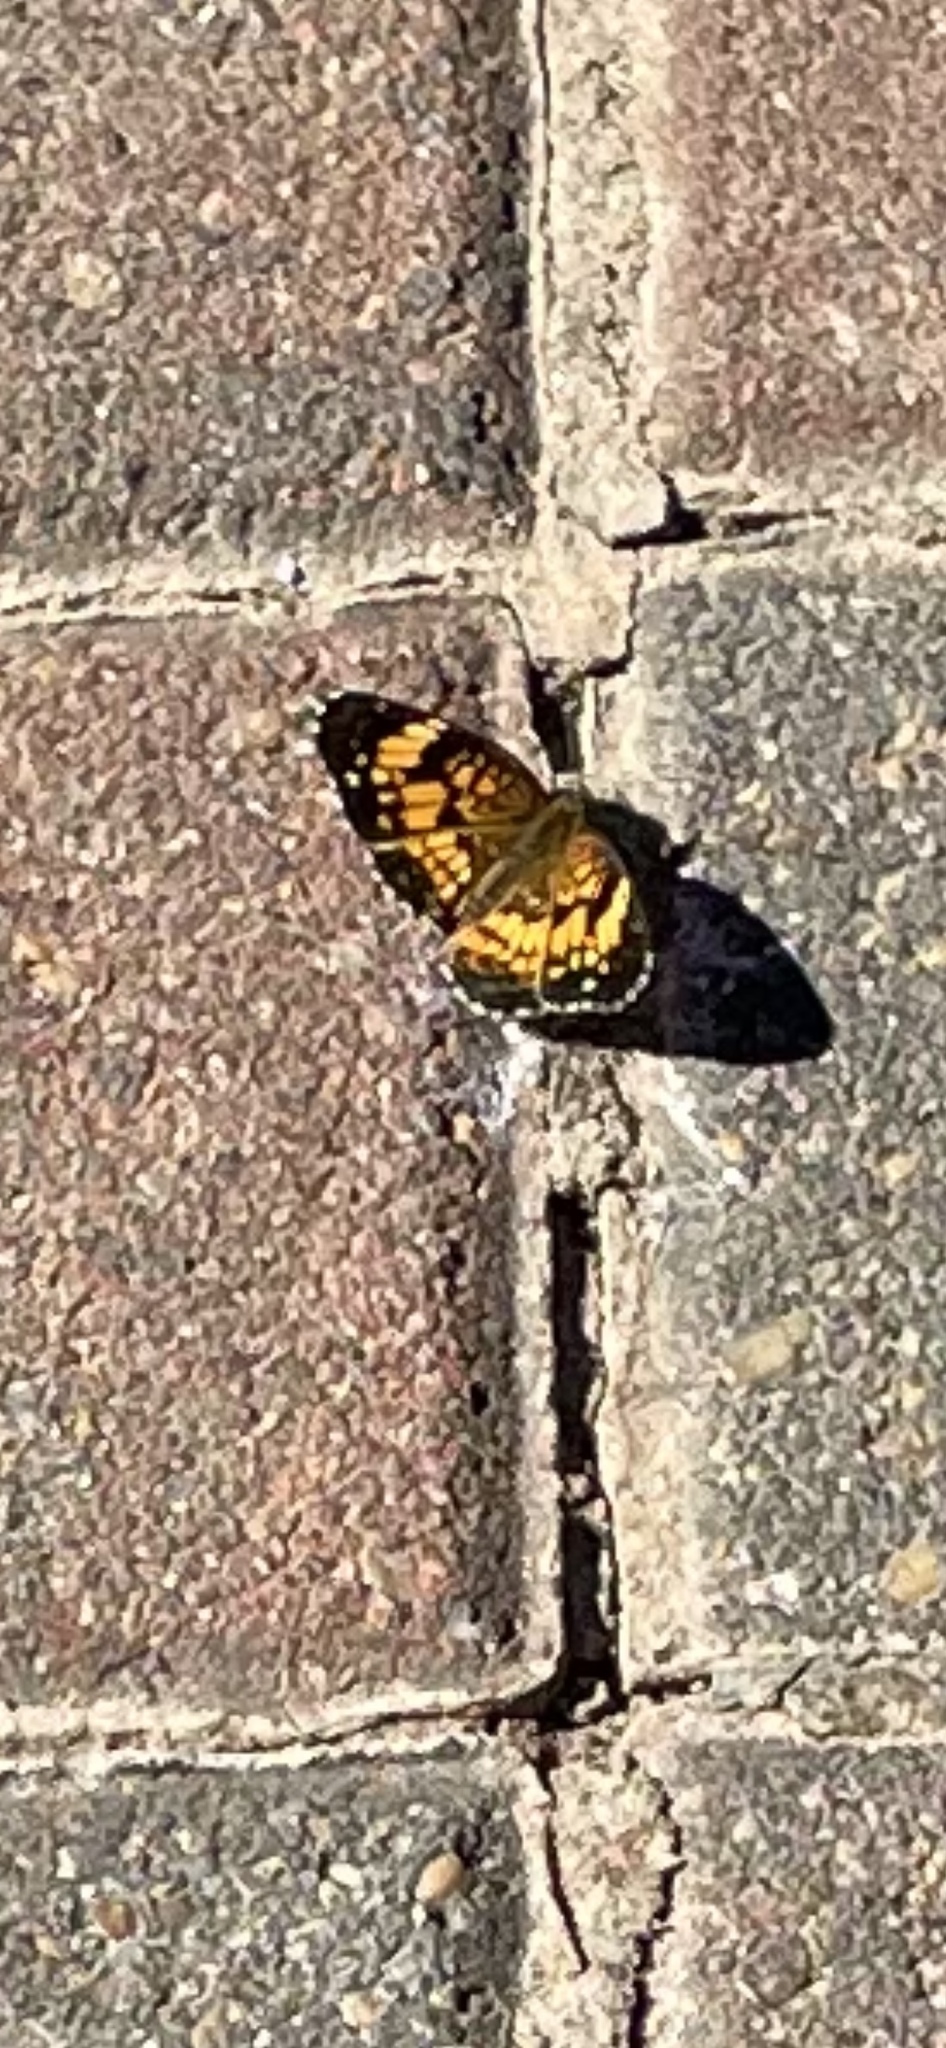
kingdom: Animalia
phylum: Arthropoda
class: Insecta
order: Lepidoptera
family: Nymphalidae
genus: Chlosyne
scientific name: Chlosyne nycteis
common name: Silvery checkerspot
